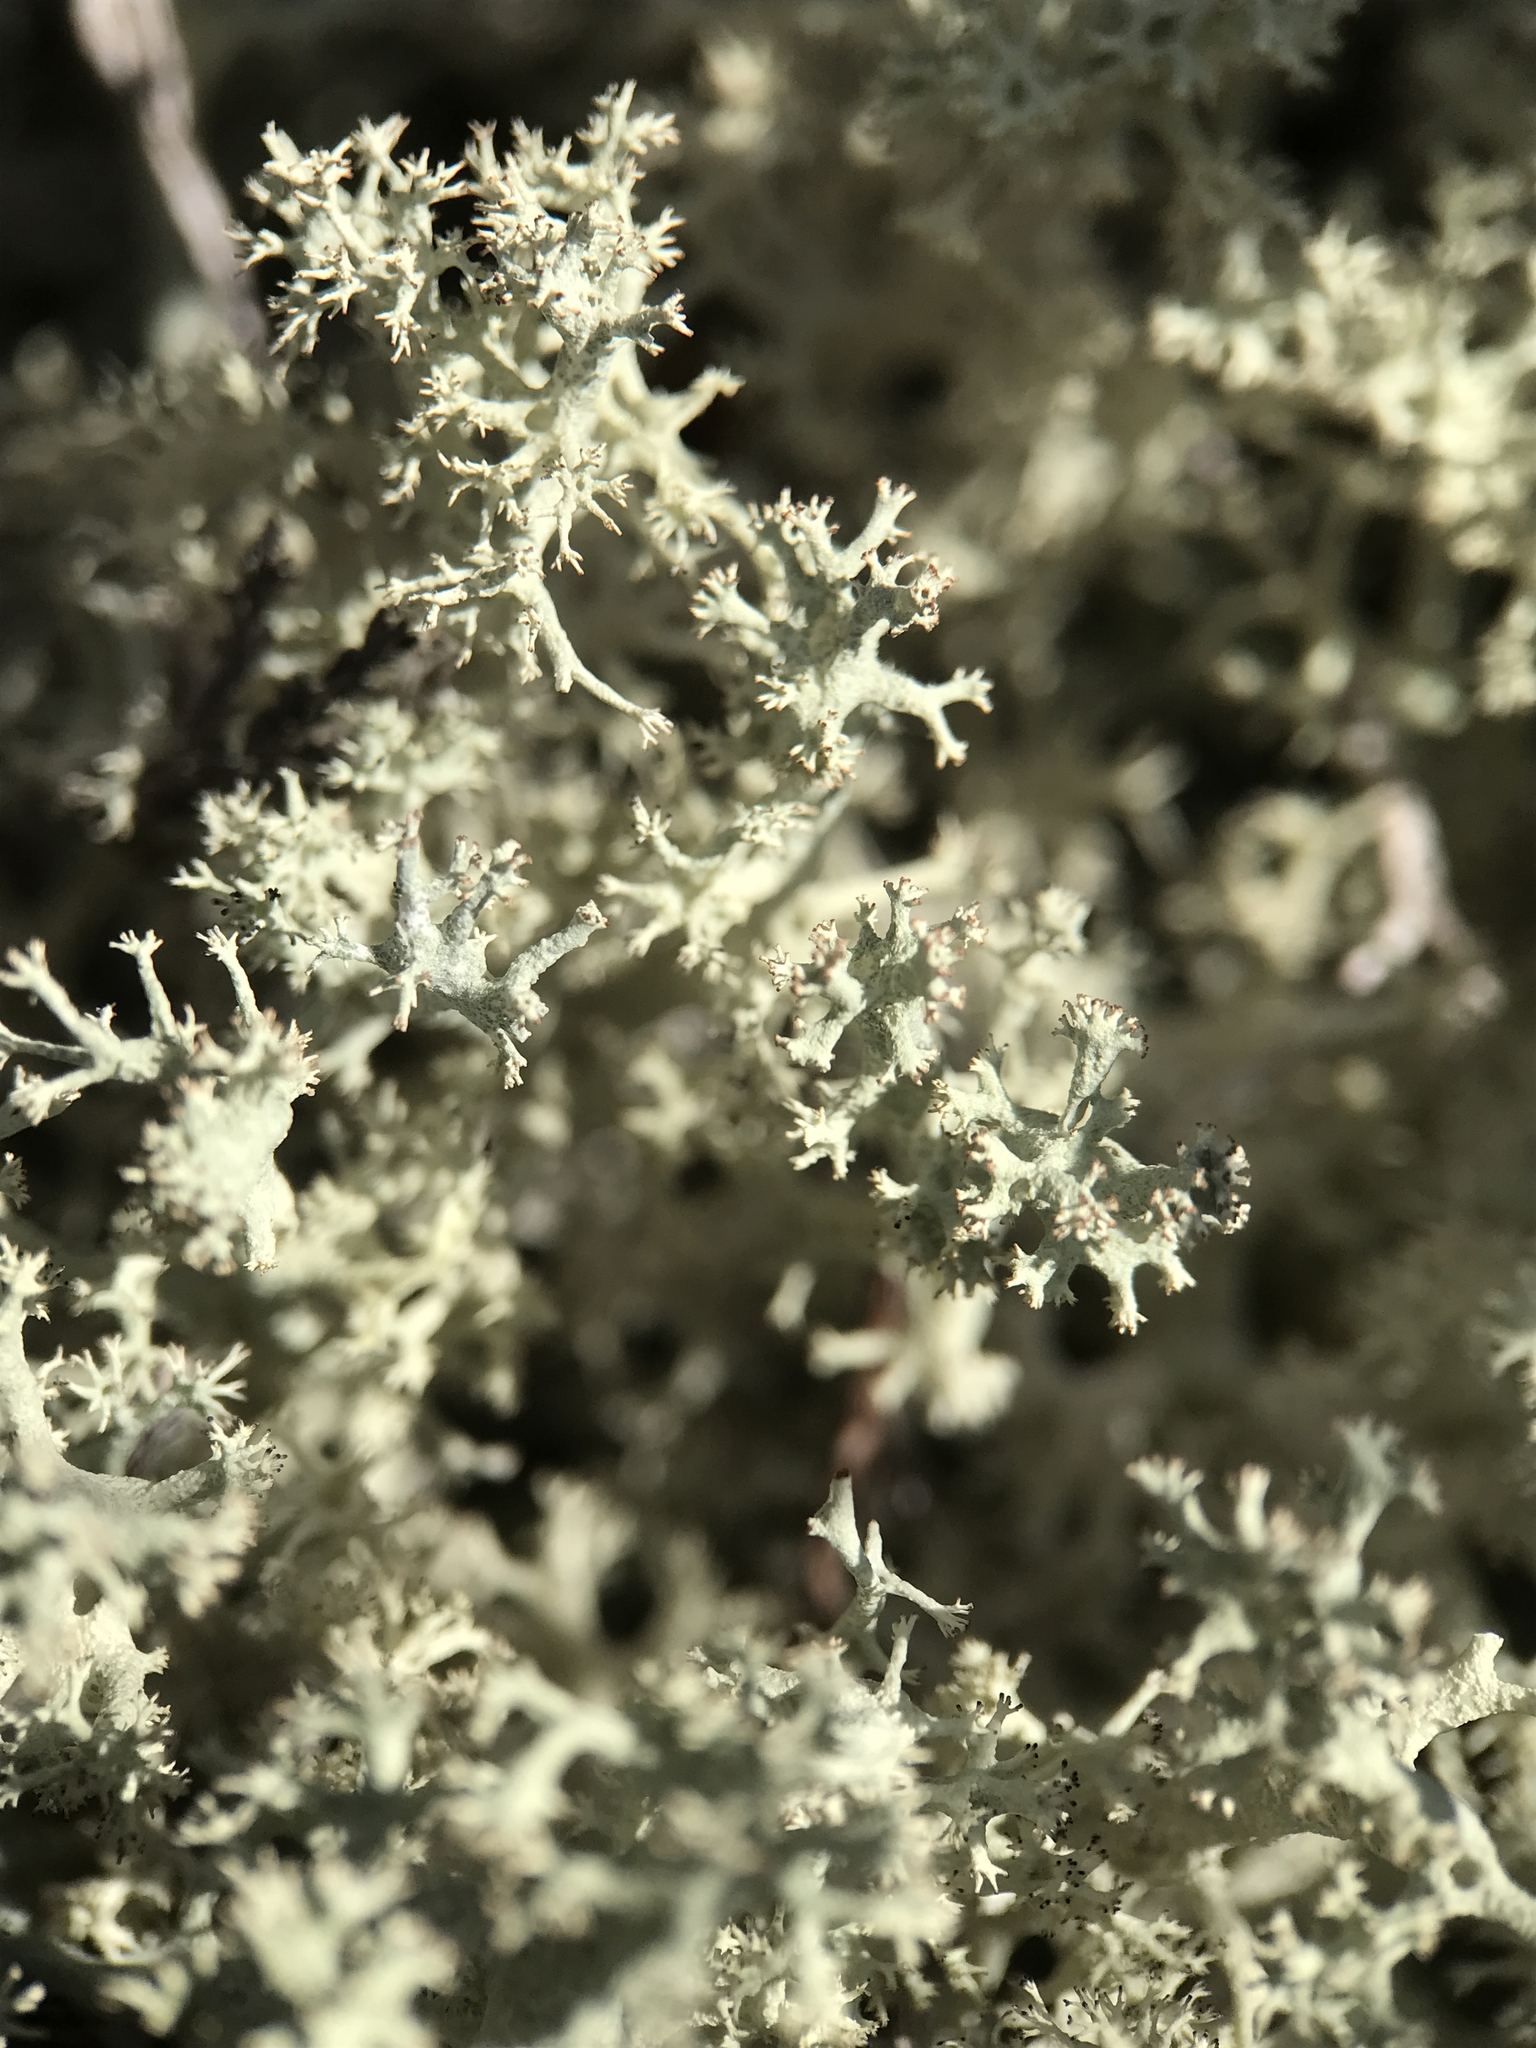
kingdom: Fungi
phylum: Ascomycota
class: Lecanoromycetes
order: Lecanorales
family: Cladoniaceae
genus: Cladonia
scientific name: Cladonia portentosa
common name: Reindeer lichen
